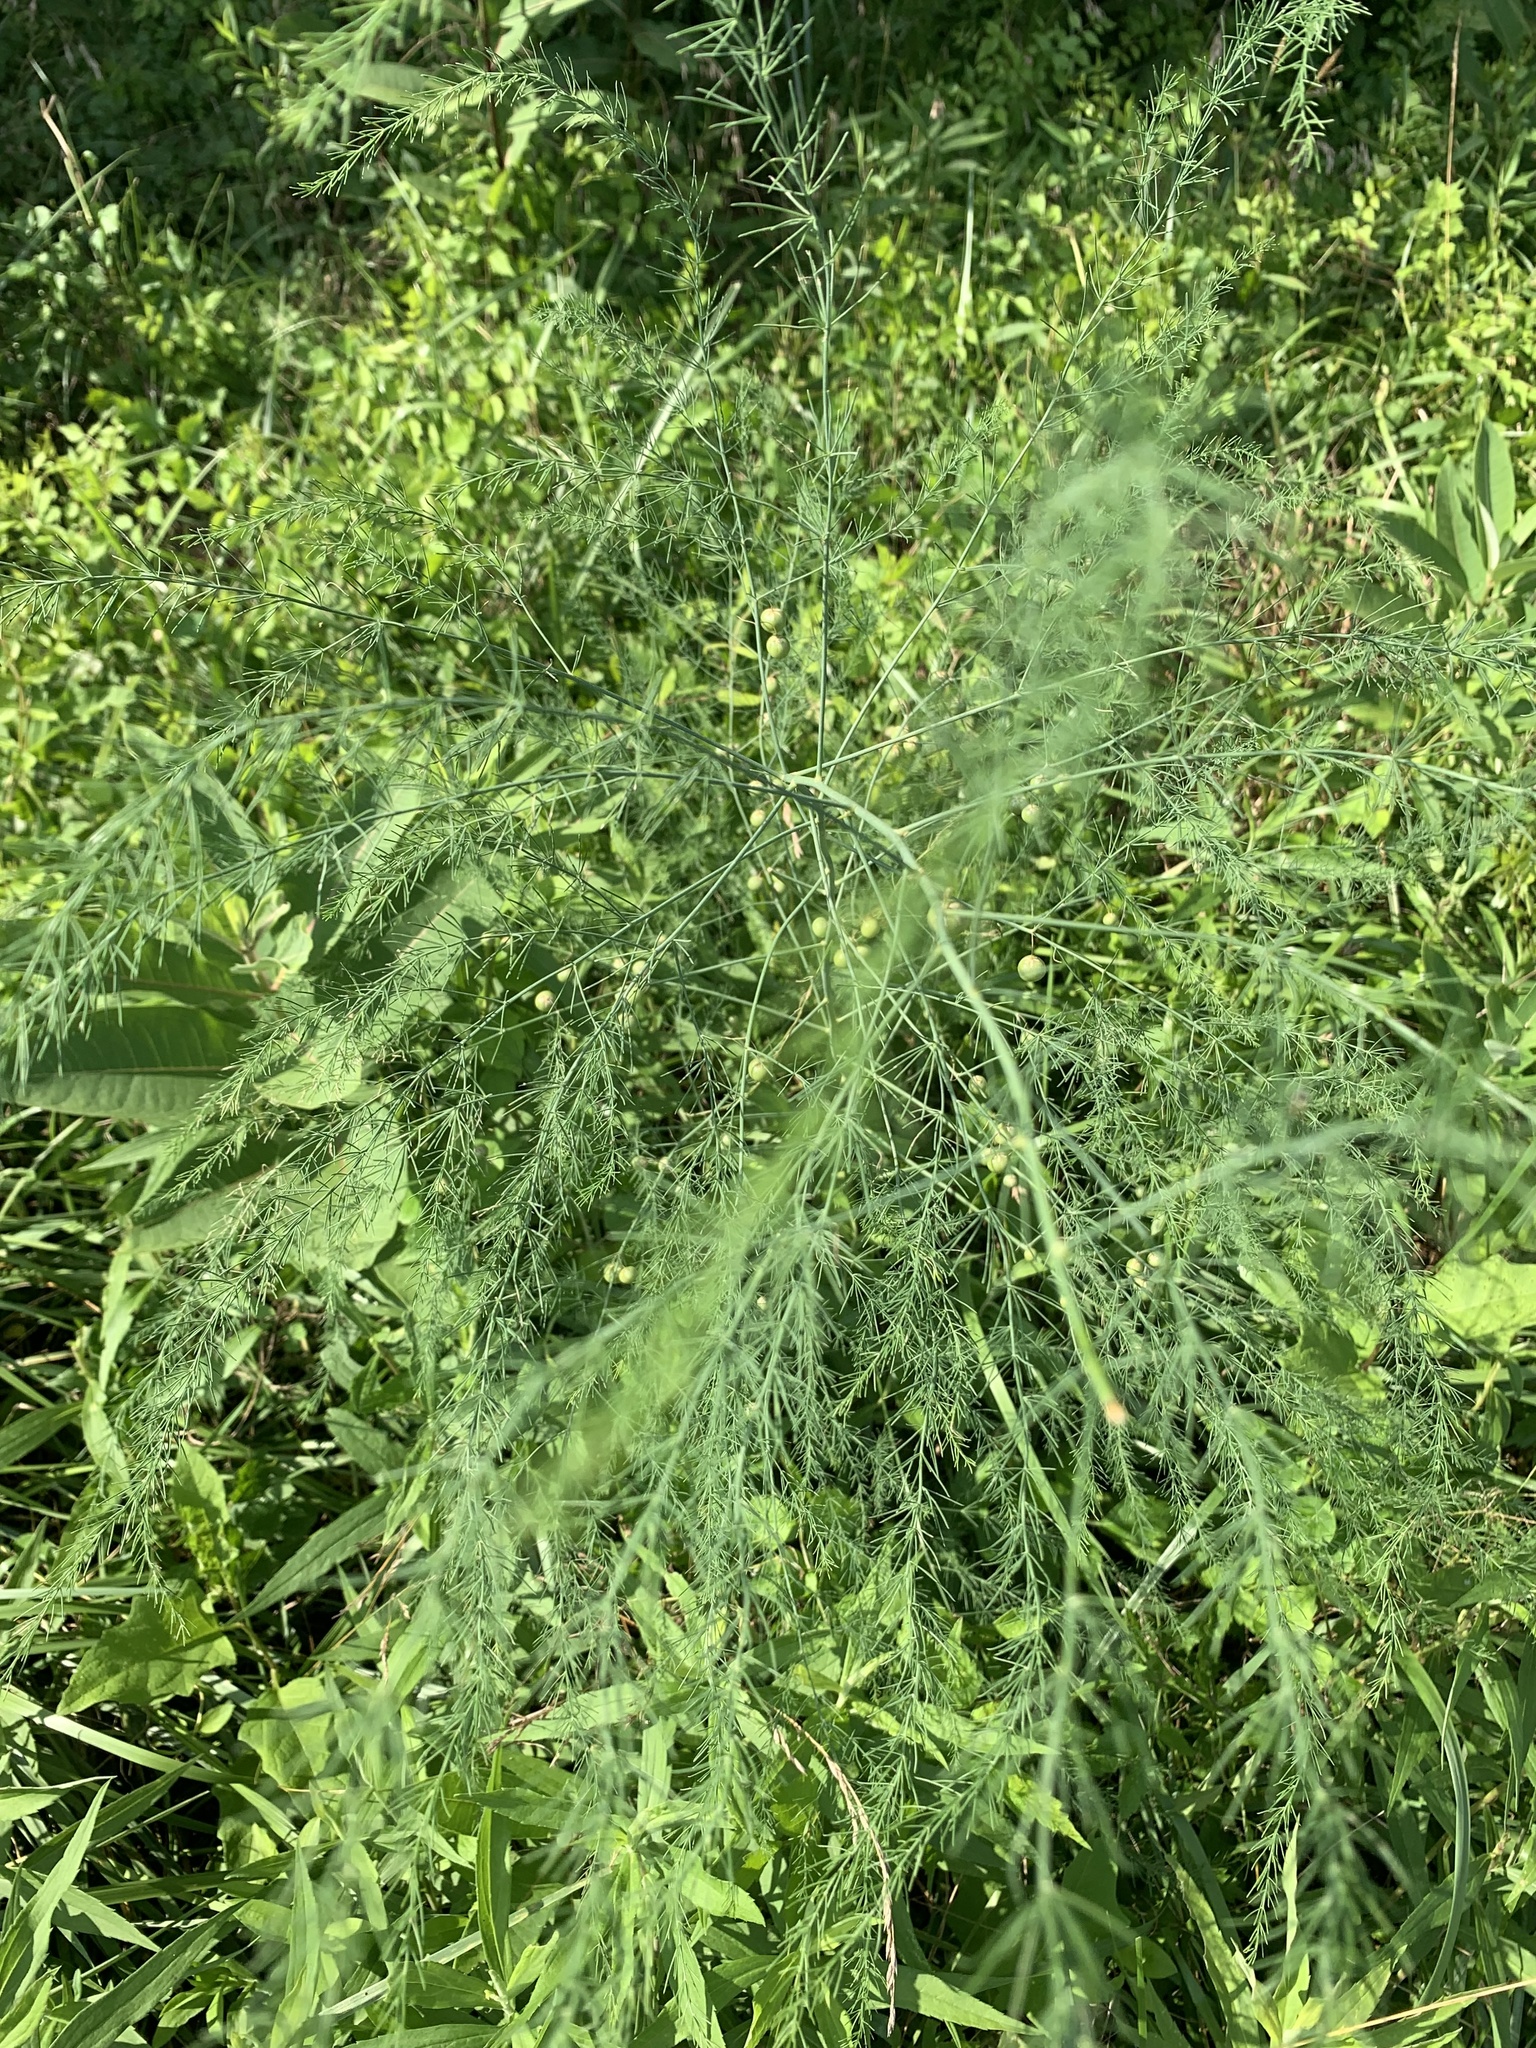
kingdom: Plantae
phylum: Tracheophyta
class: Liliopsida
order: Asparagales
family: Asparagaceae
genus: Asparagus
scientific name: Asparagus officinalis
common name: Garden asparagus
